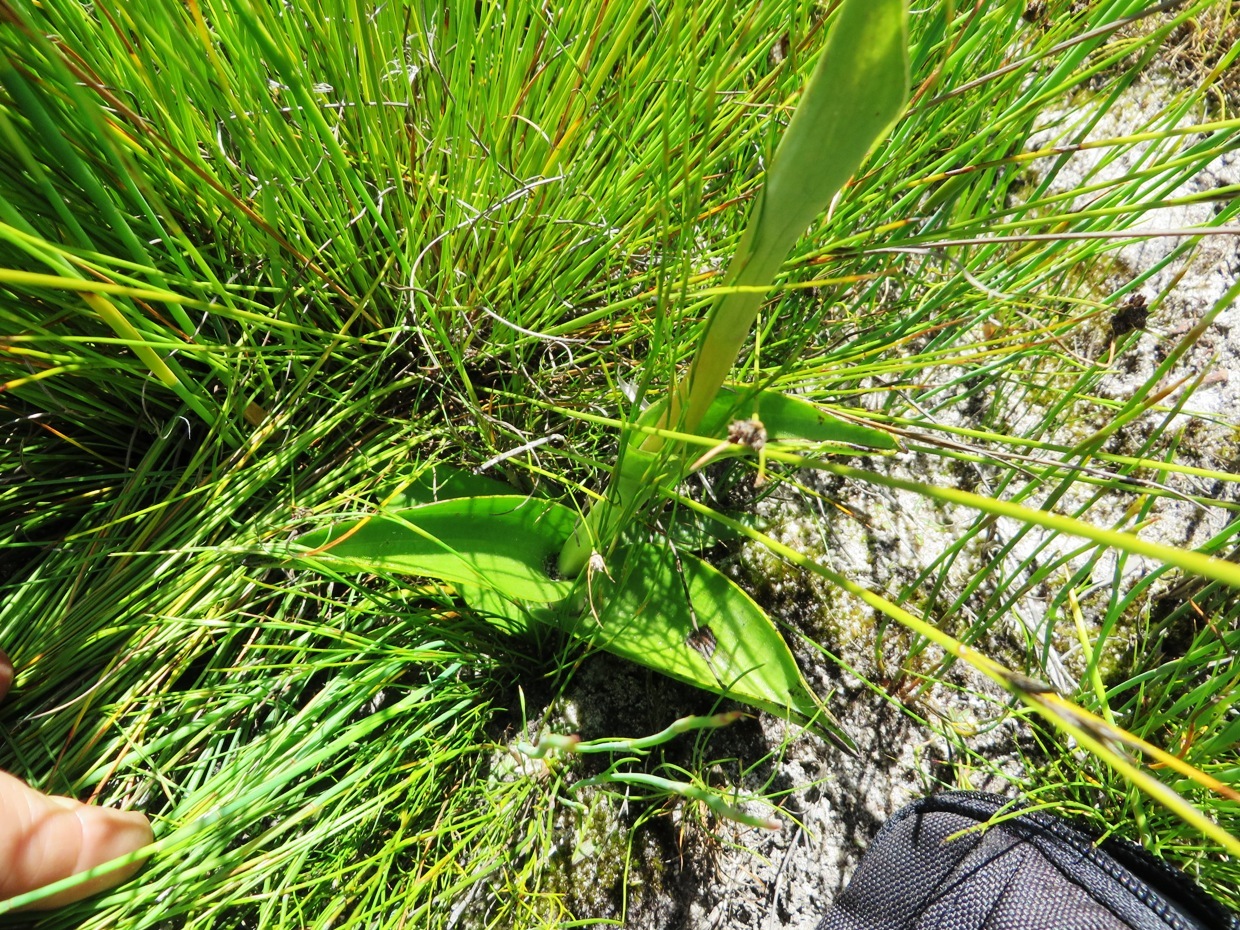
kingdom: Plantae
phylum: Tracheophyta
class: Liliopsida
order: Asparagales
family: Orchidaceae
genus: Satyrium
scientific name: Satyrium stenopetalum
